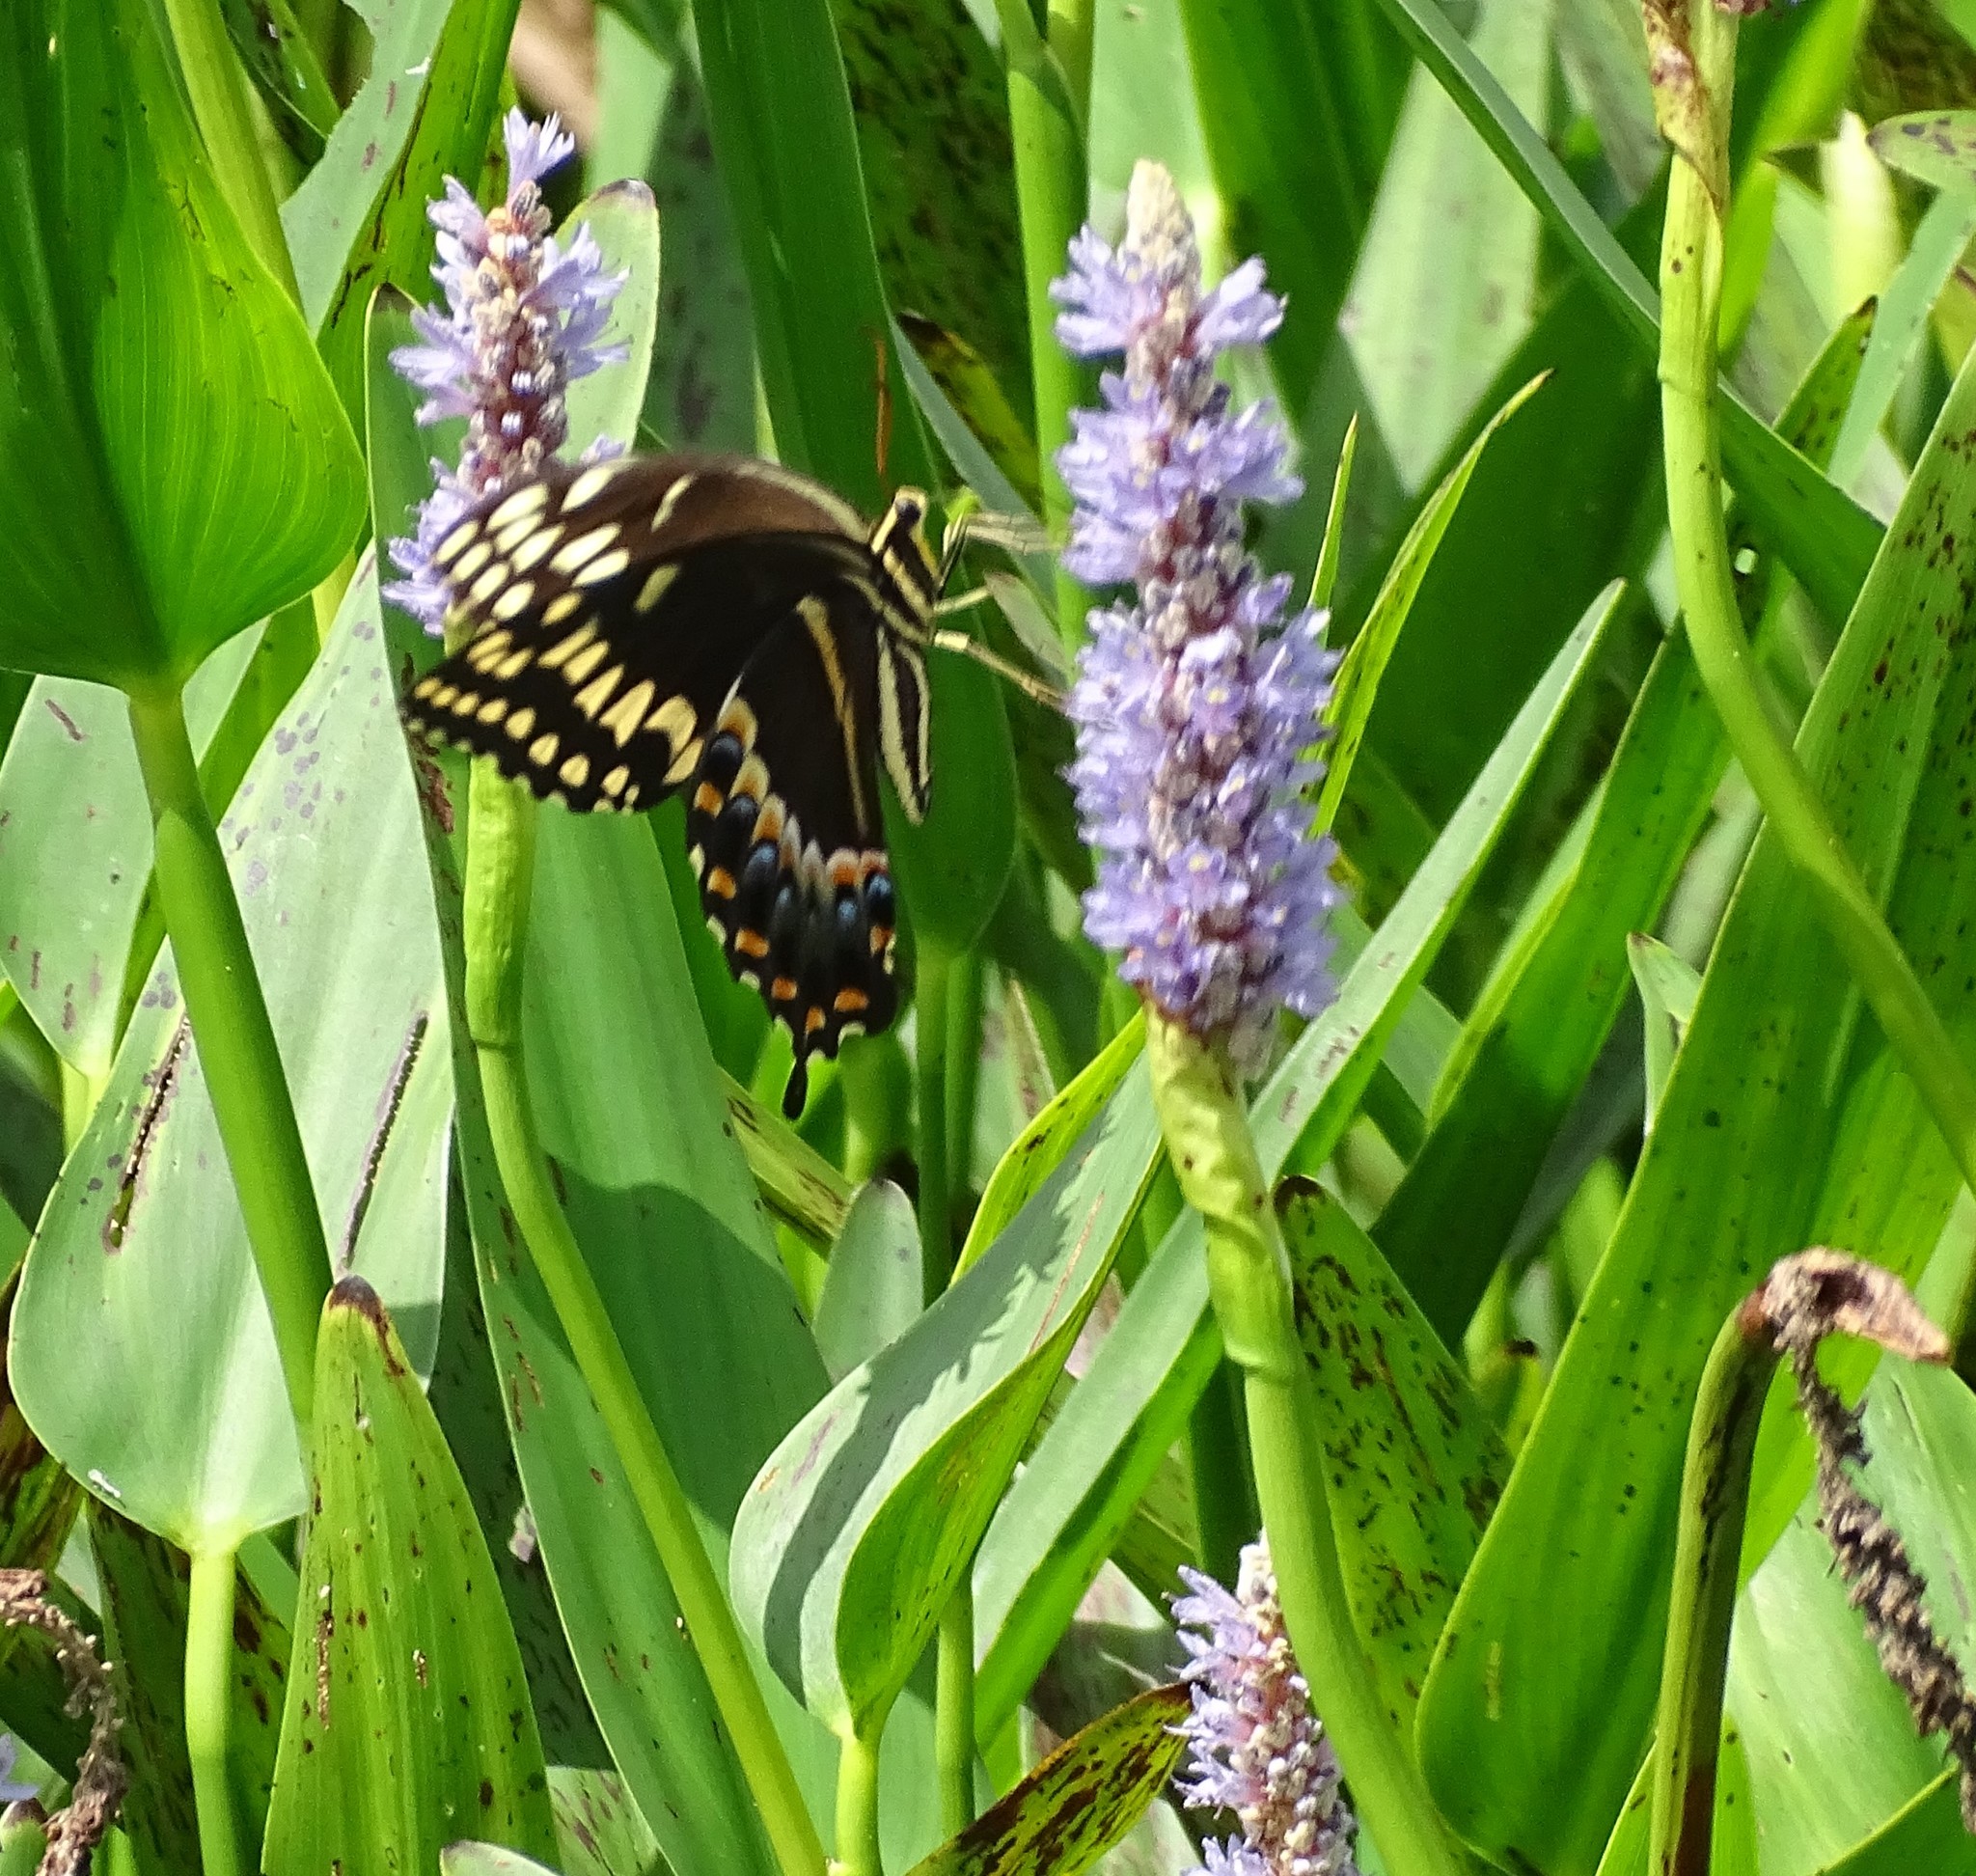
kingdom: Animalia
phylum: Arthropoda
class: Insecta
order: Lepidoptera
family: Papilionidae
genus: Papilio
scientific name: Papilio palamedes
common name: Palamedes swallowtail
